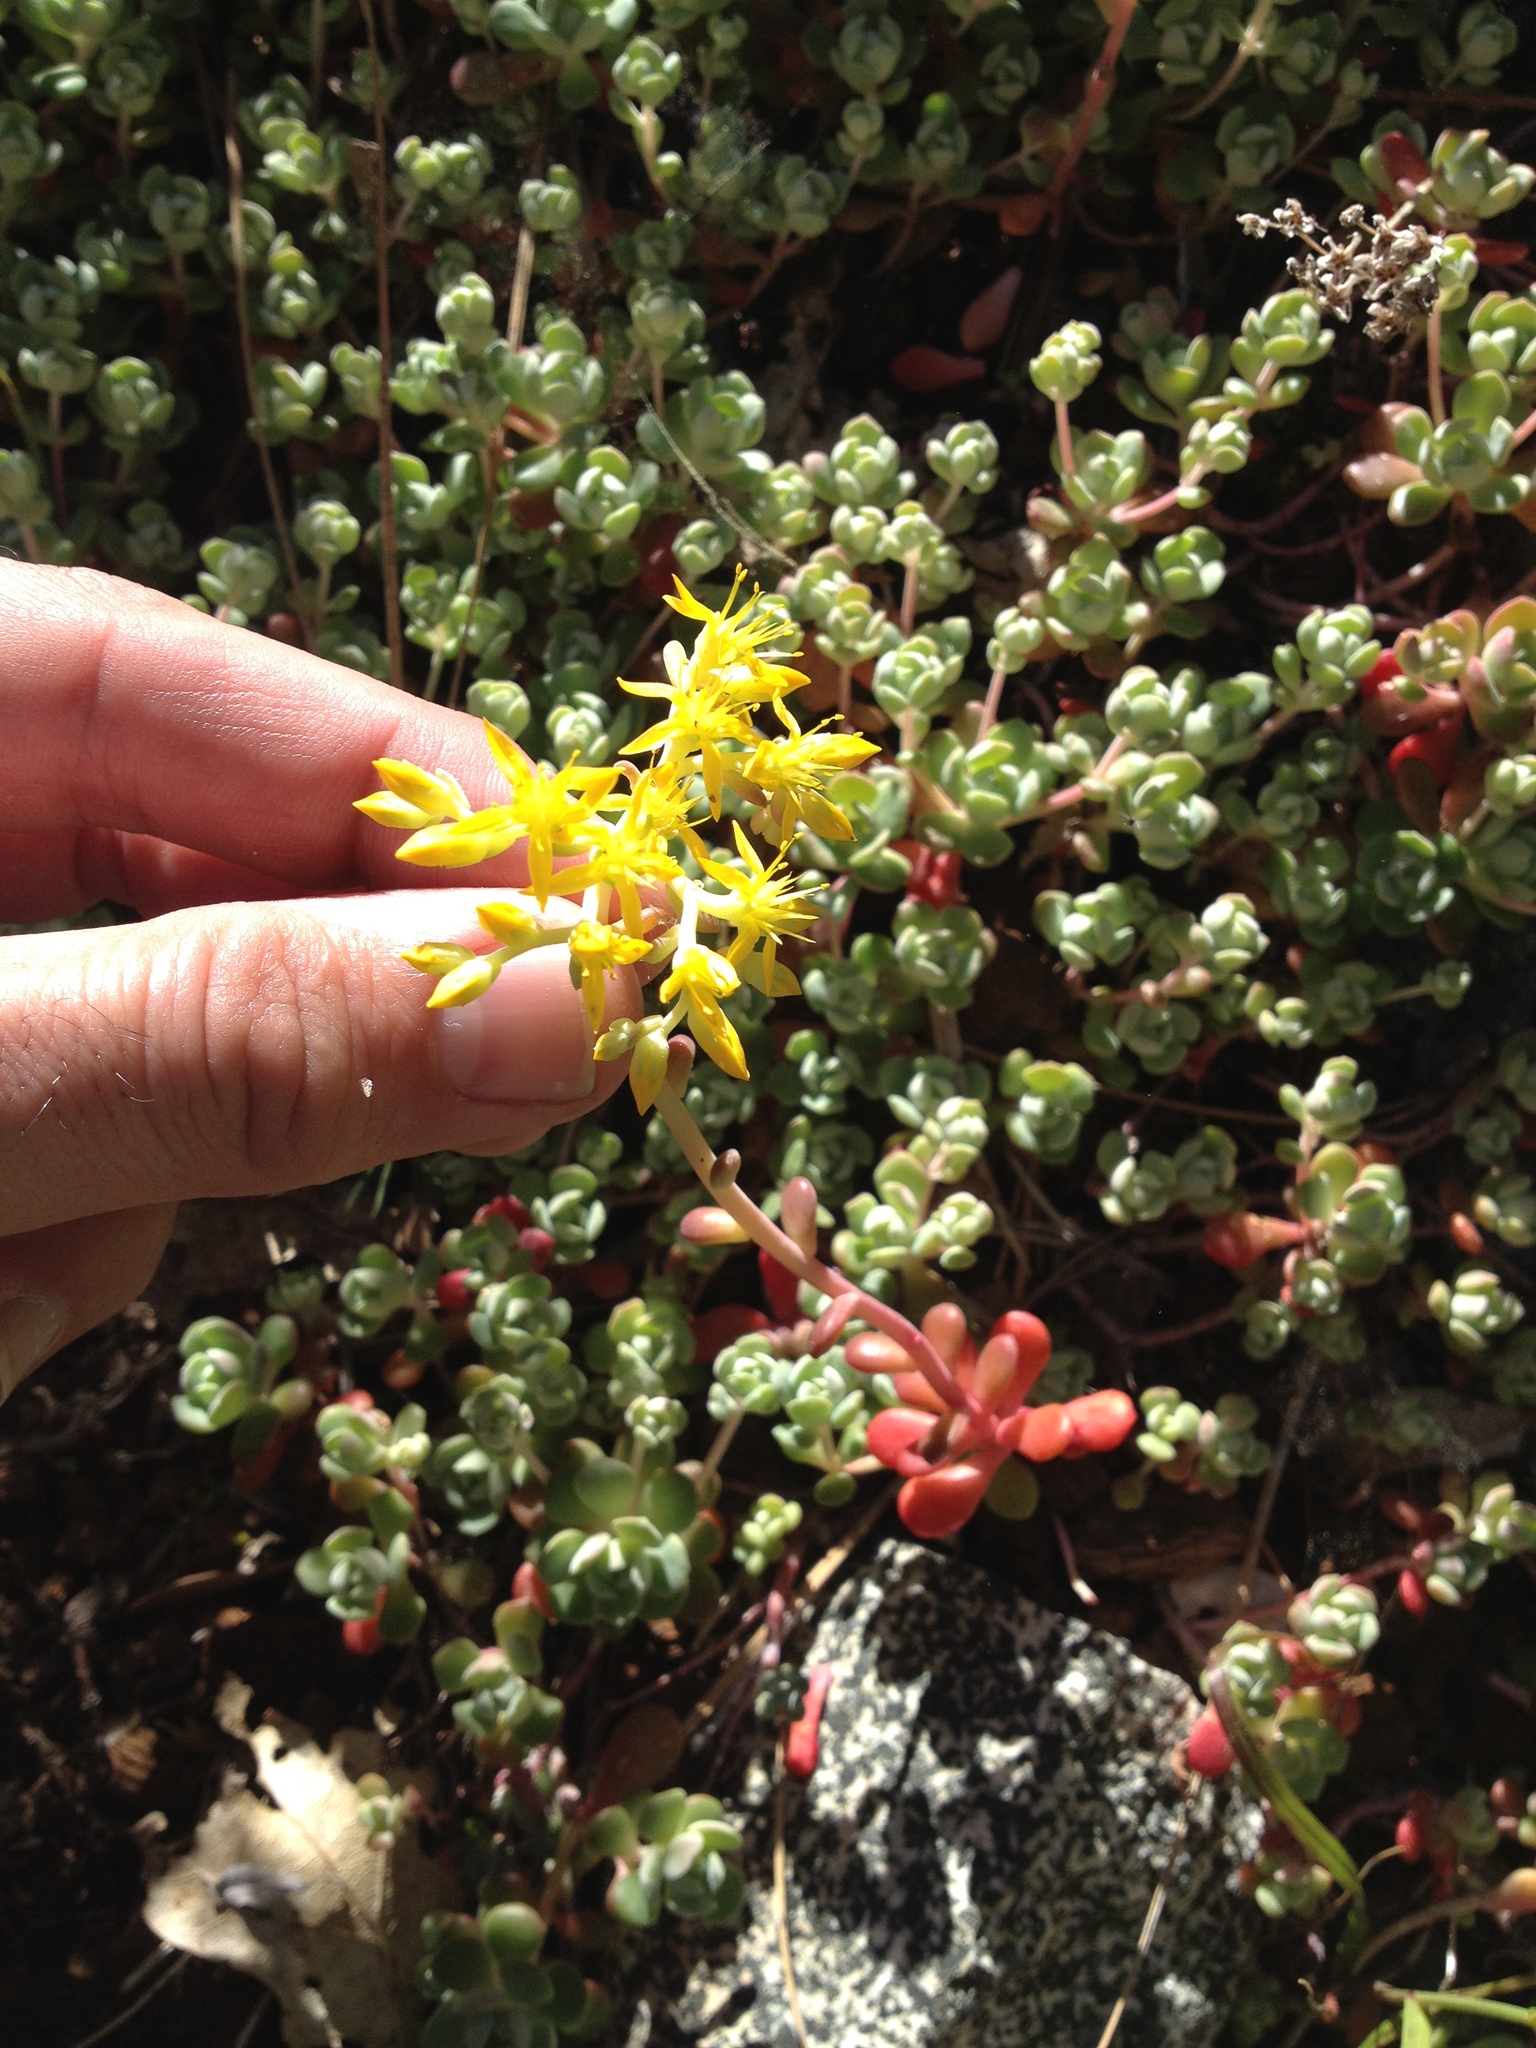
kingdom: Plantae
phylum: Tracheophyta
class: Magnoliopsida
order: Saxifragales
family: Crassulaceae
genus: Sedum
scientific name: Sedum spathulifolium
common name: Colorado stonecrop
